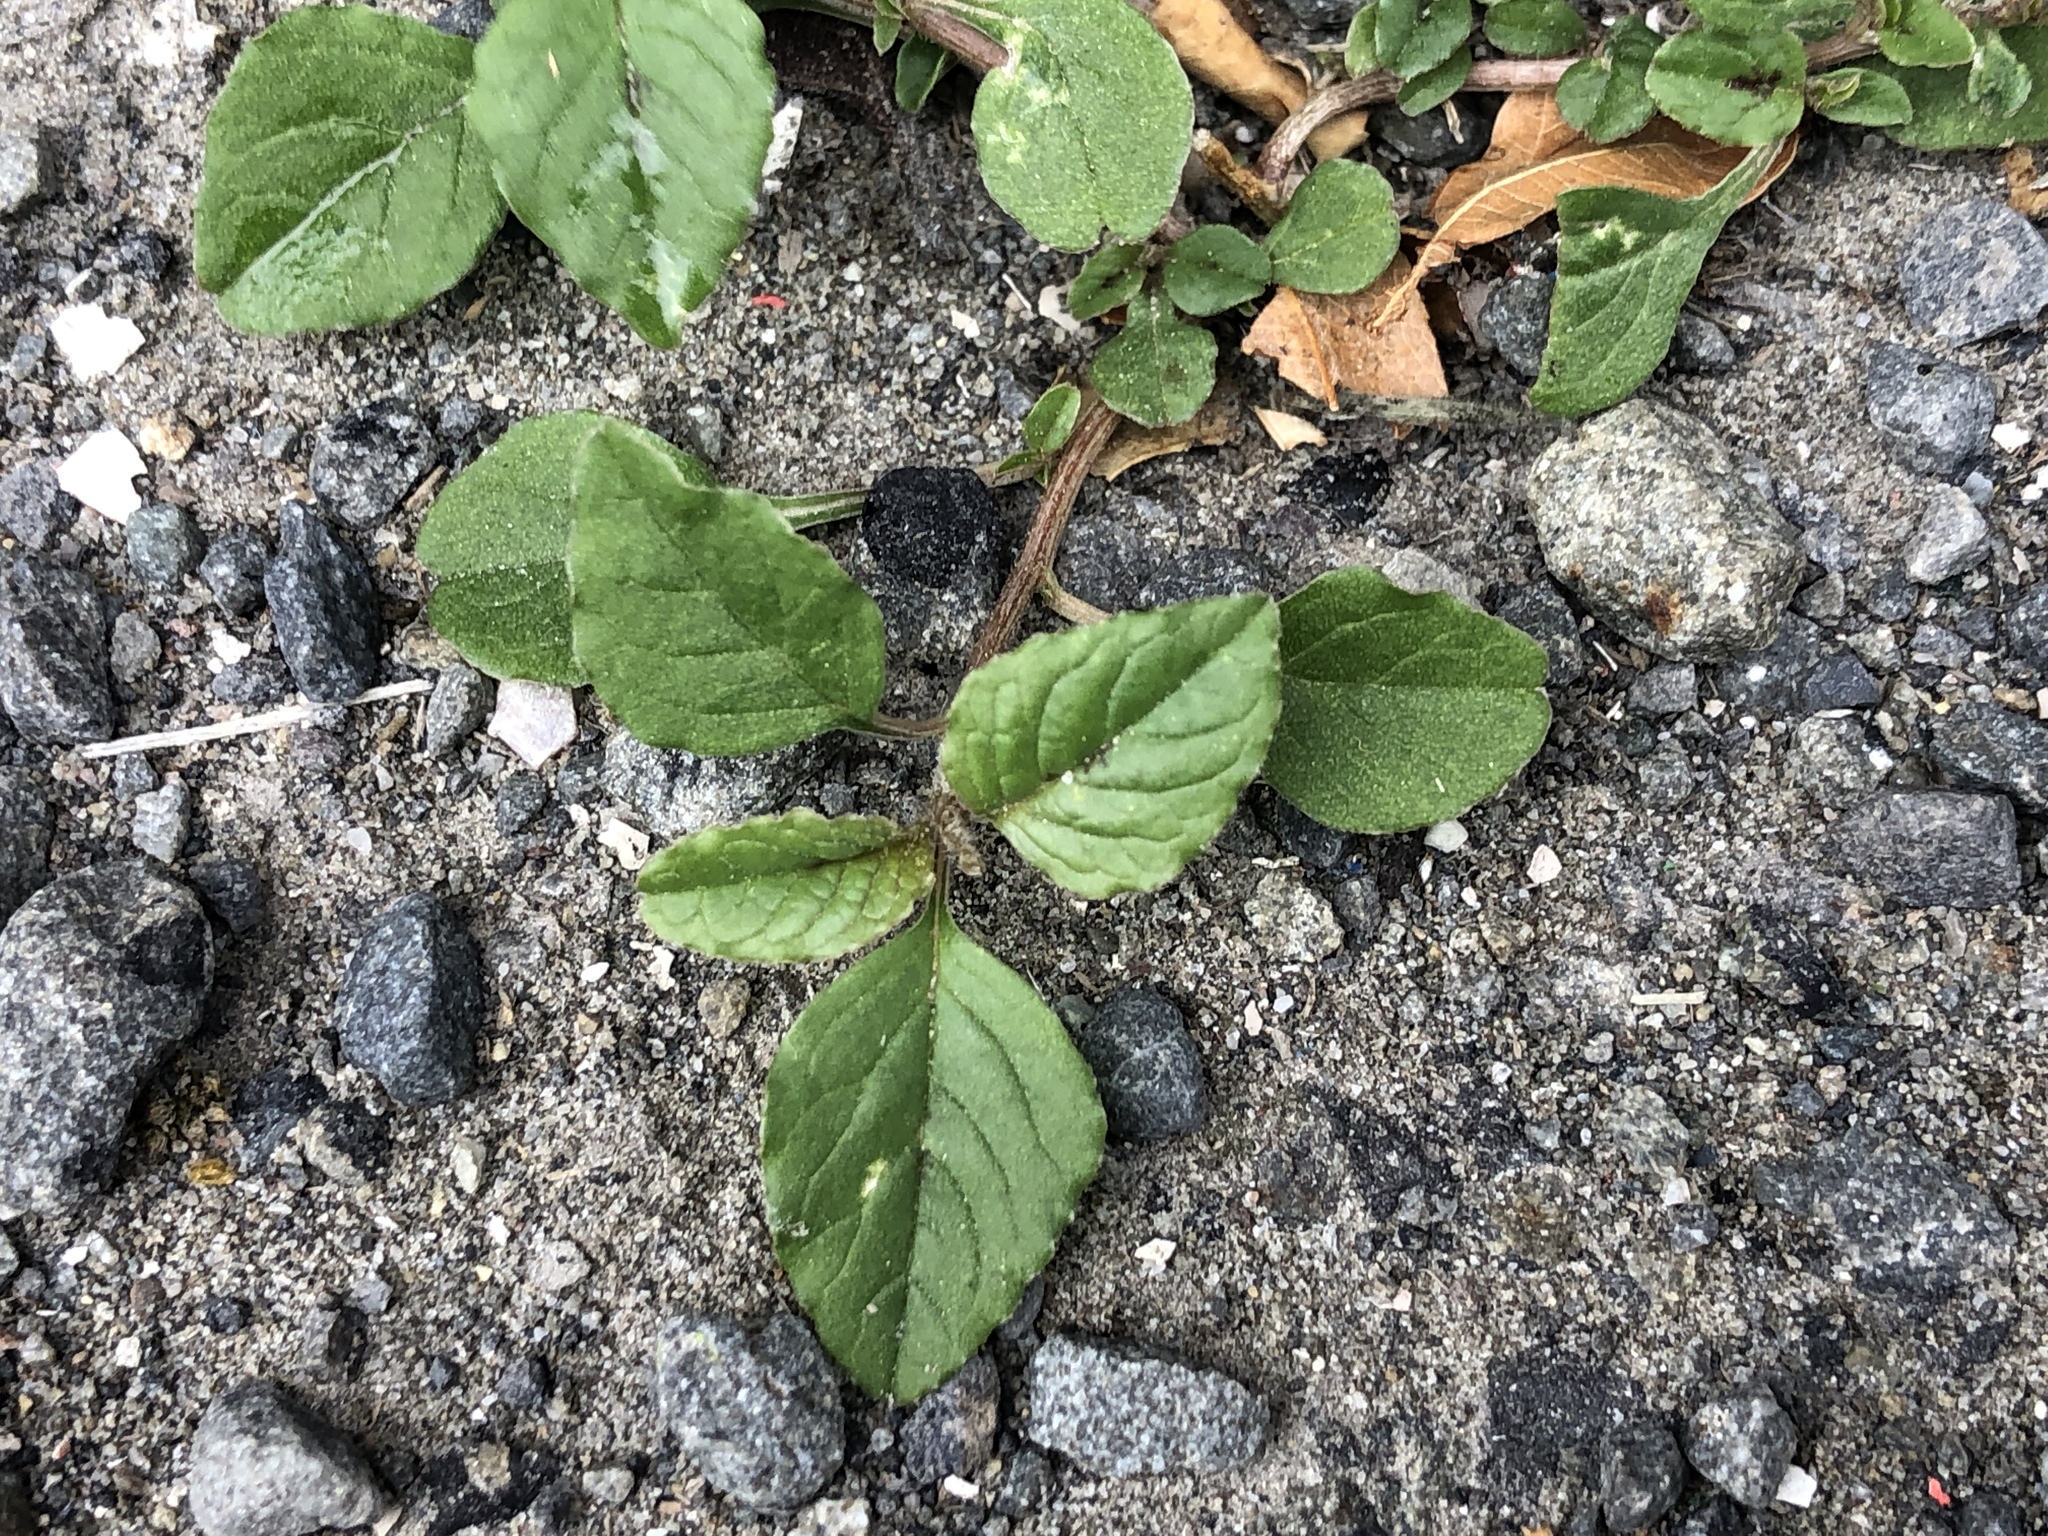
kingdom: Plantae
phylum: Tracheophyta
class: Magnoliopsida
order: Caryophyllales
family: Amaranthaceae
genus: Amaranthus
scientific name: Amaranthus deflexus
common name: Perennial pigweed
